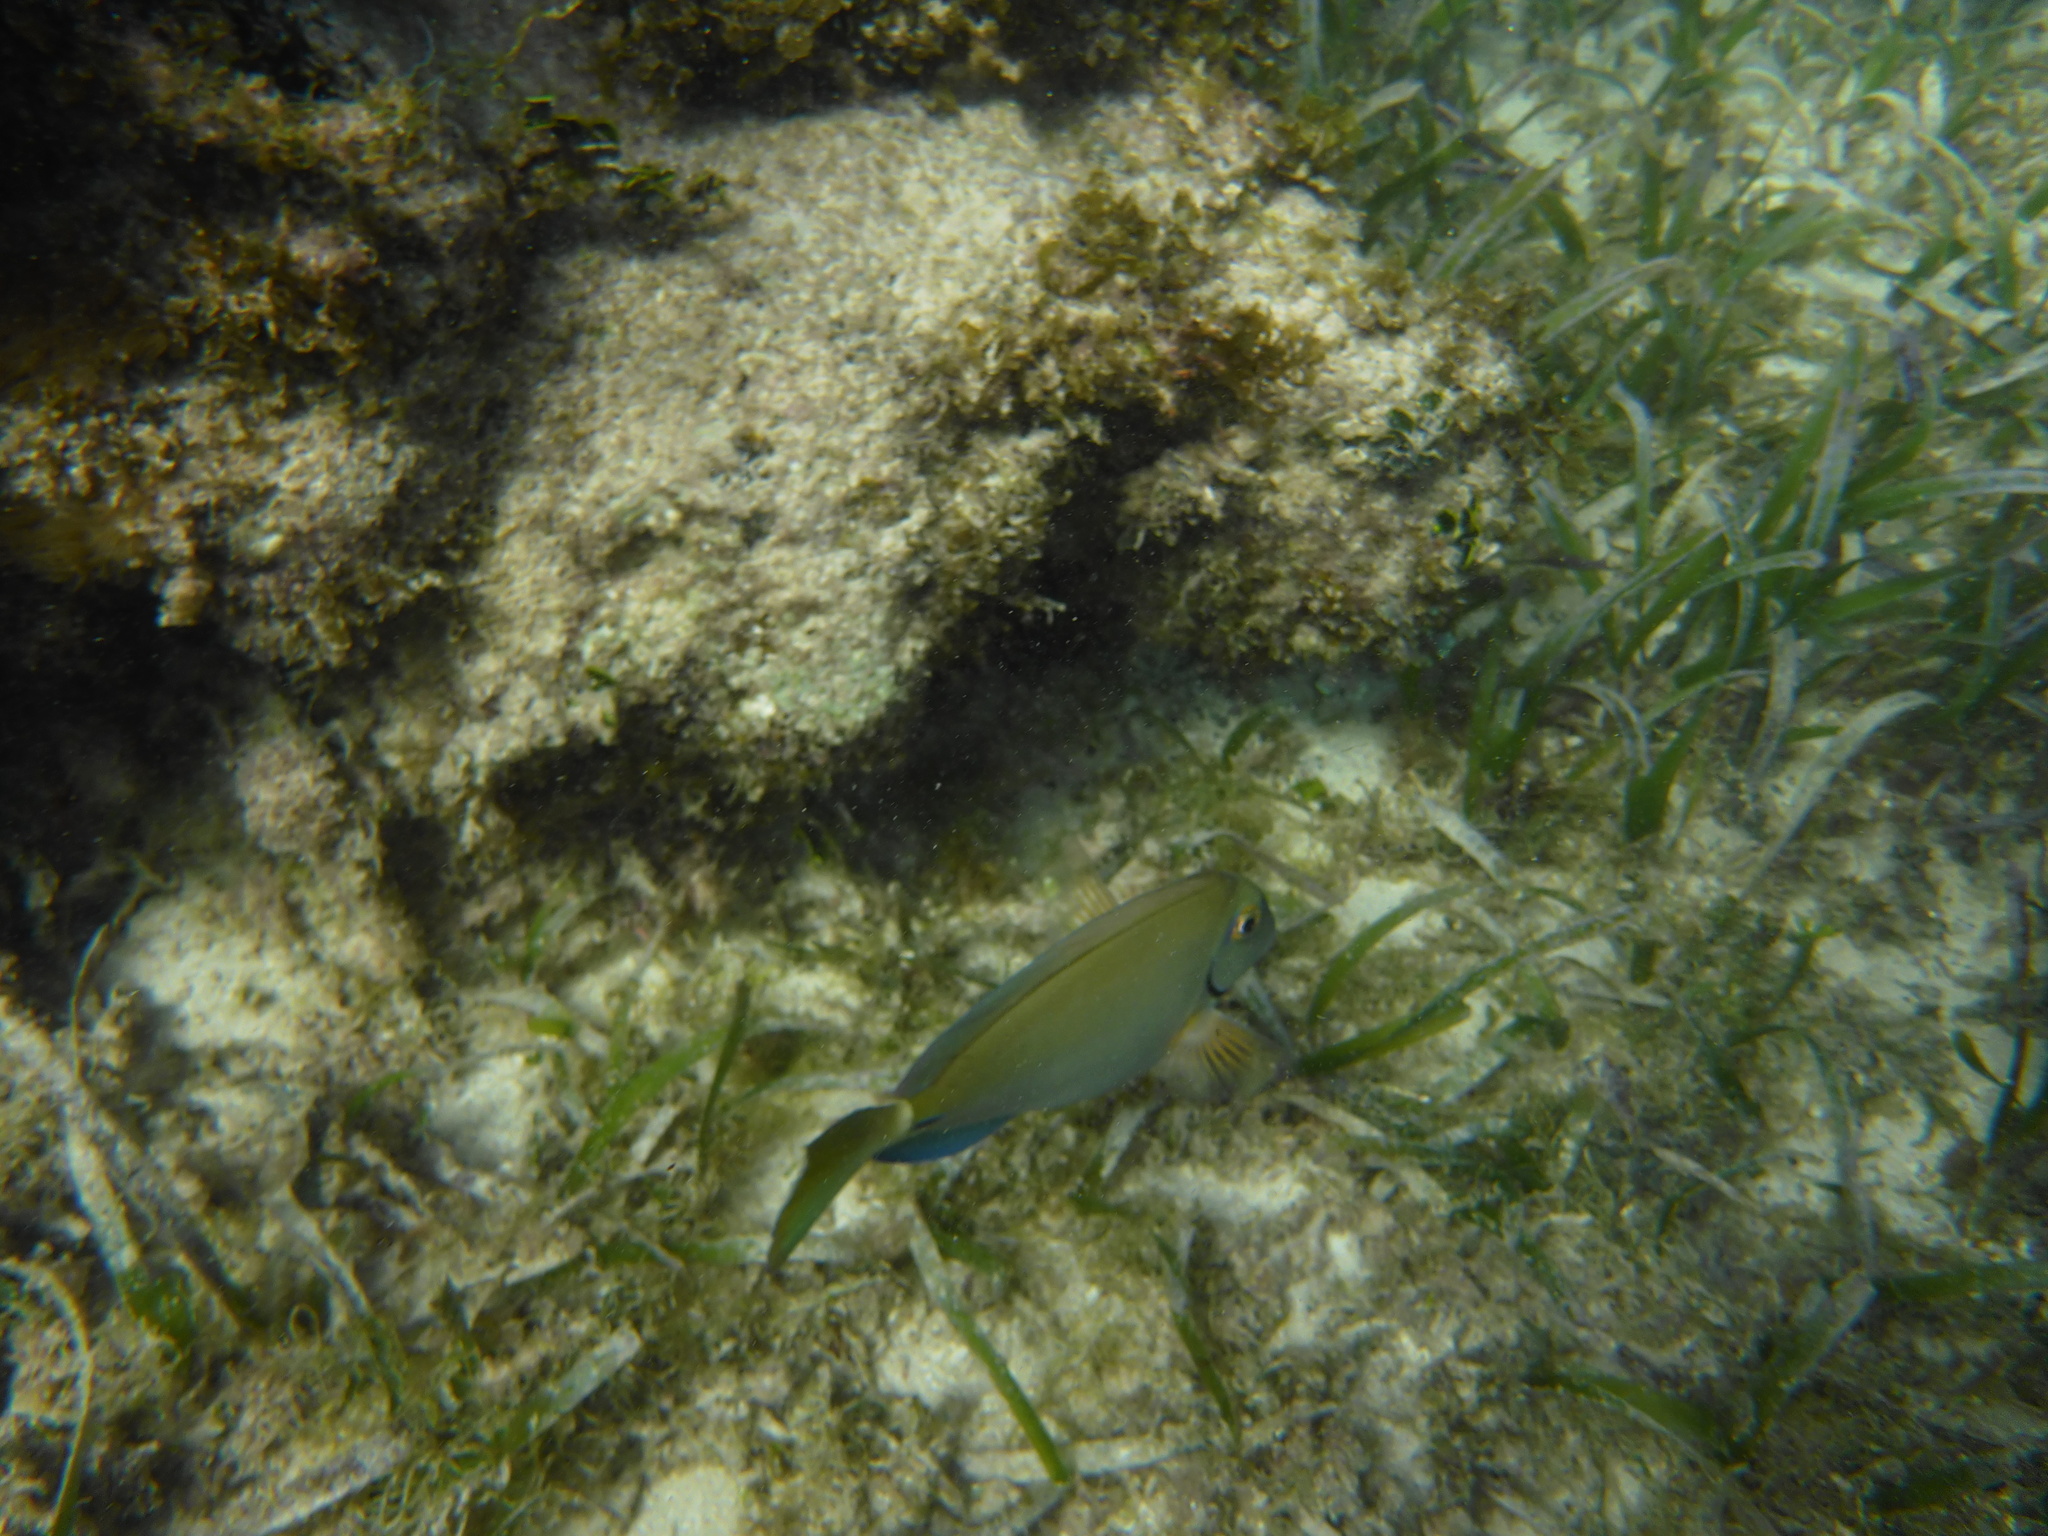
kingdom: Animalia
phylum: Chordata
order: Perciformes
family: Acanthuridae
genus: Acanthurus
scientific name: Acanthurus bahianus
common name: Ocean surgeon
